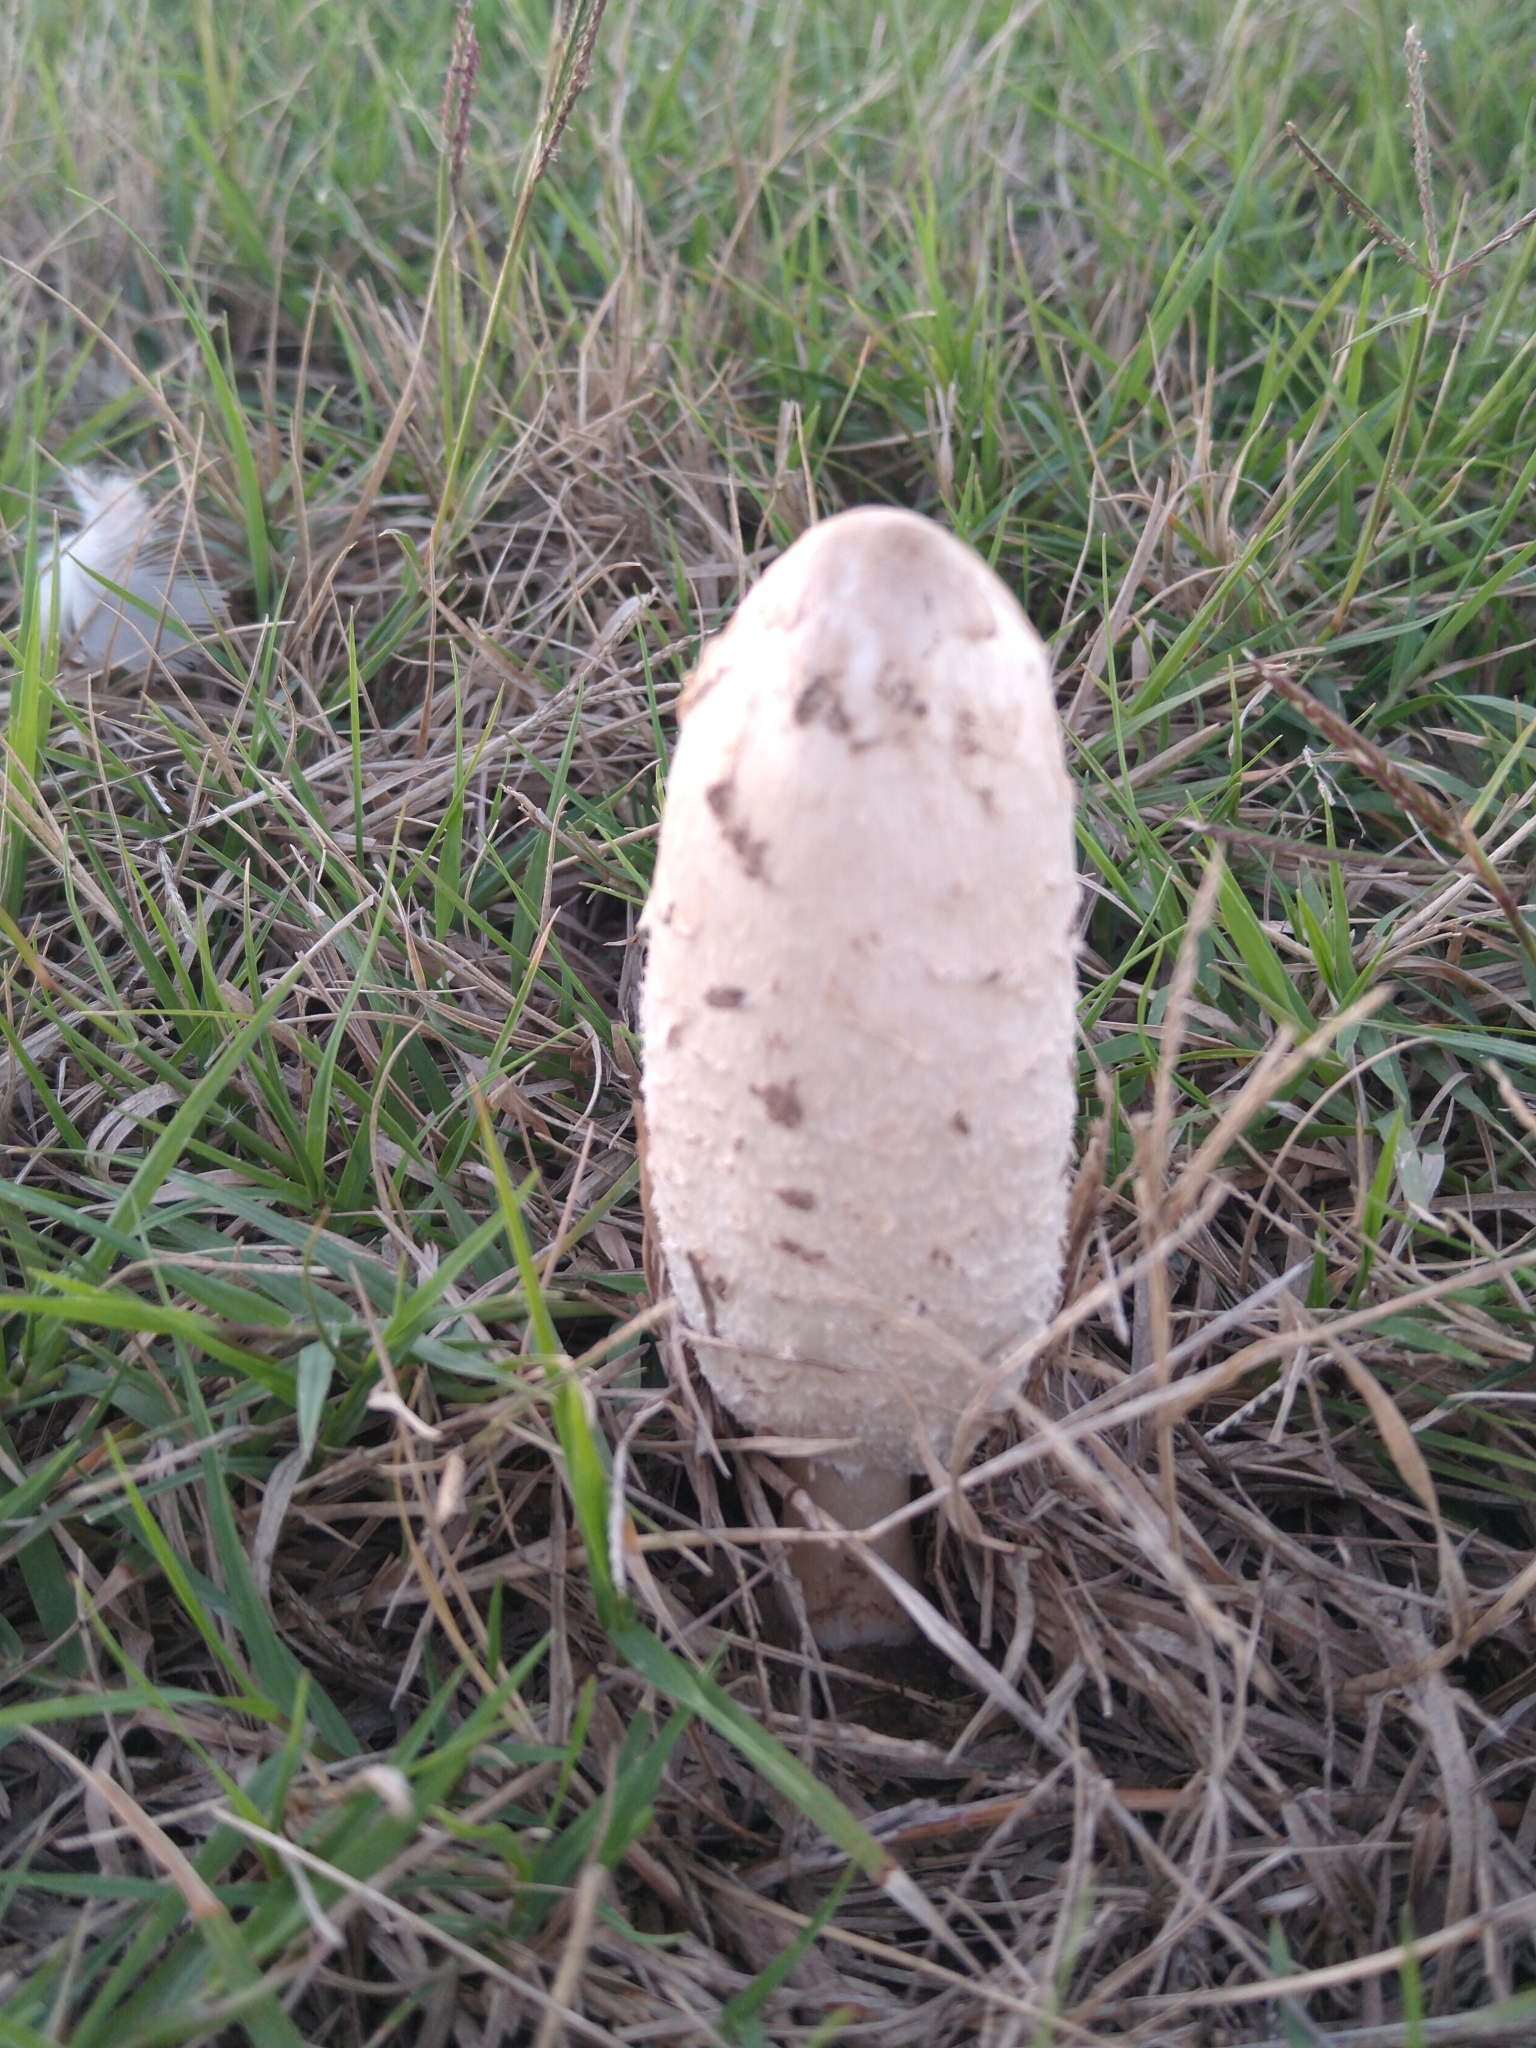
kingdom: Fungi
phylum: Basidiomycota
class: Agaricomycetes
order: Agaricales
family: Agaricaceae
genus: Coprinus
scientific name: Coprinus comatus
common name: Lawyer's wig
